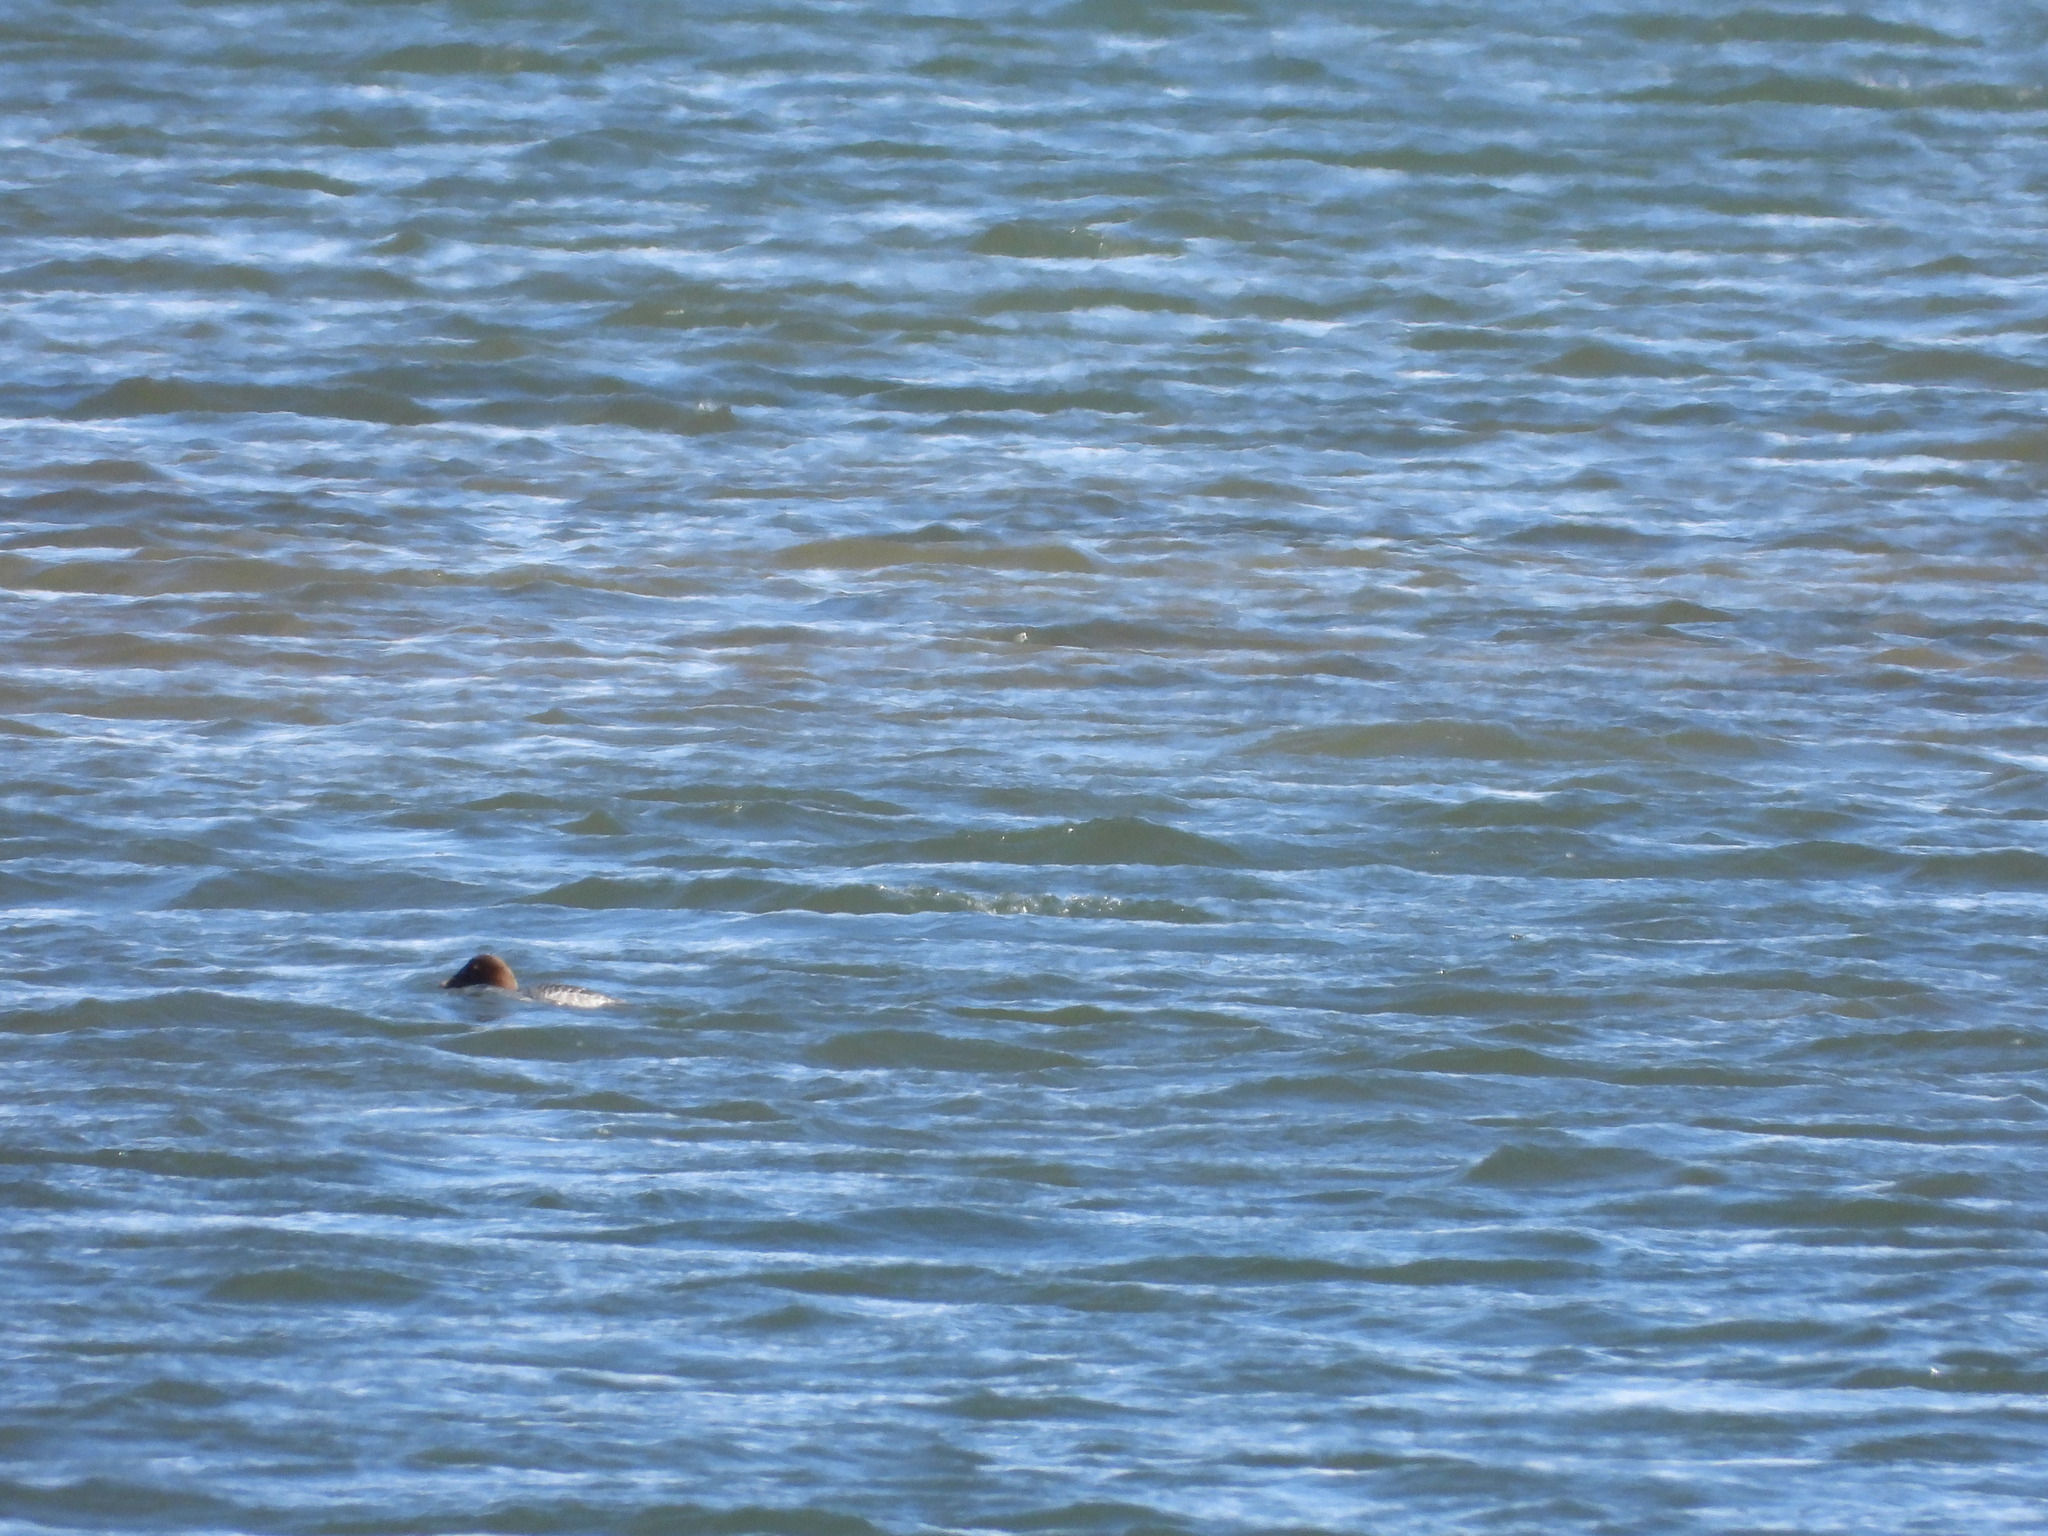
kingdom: Animalia
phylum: Chordata
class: Aves
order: Anseriformes
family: Anatidae
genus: Bucephala
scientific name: Bucephala clangula
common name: Common goldeneye
